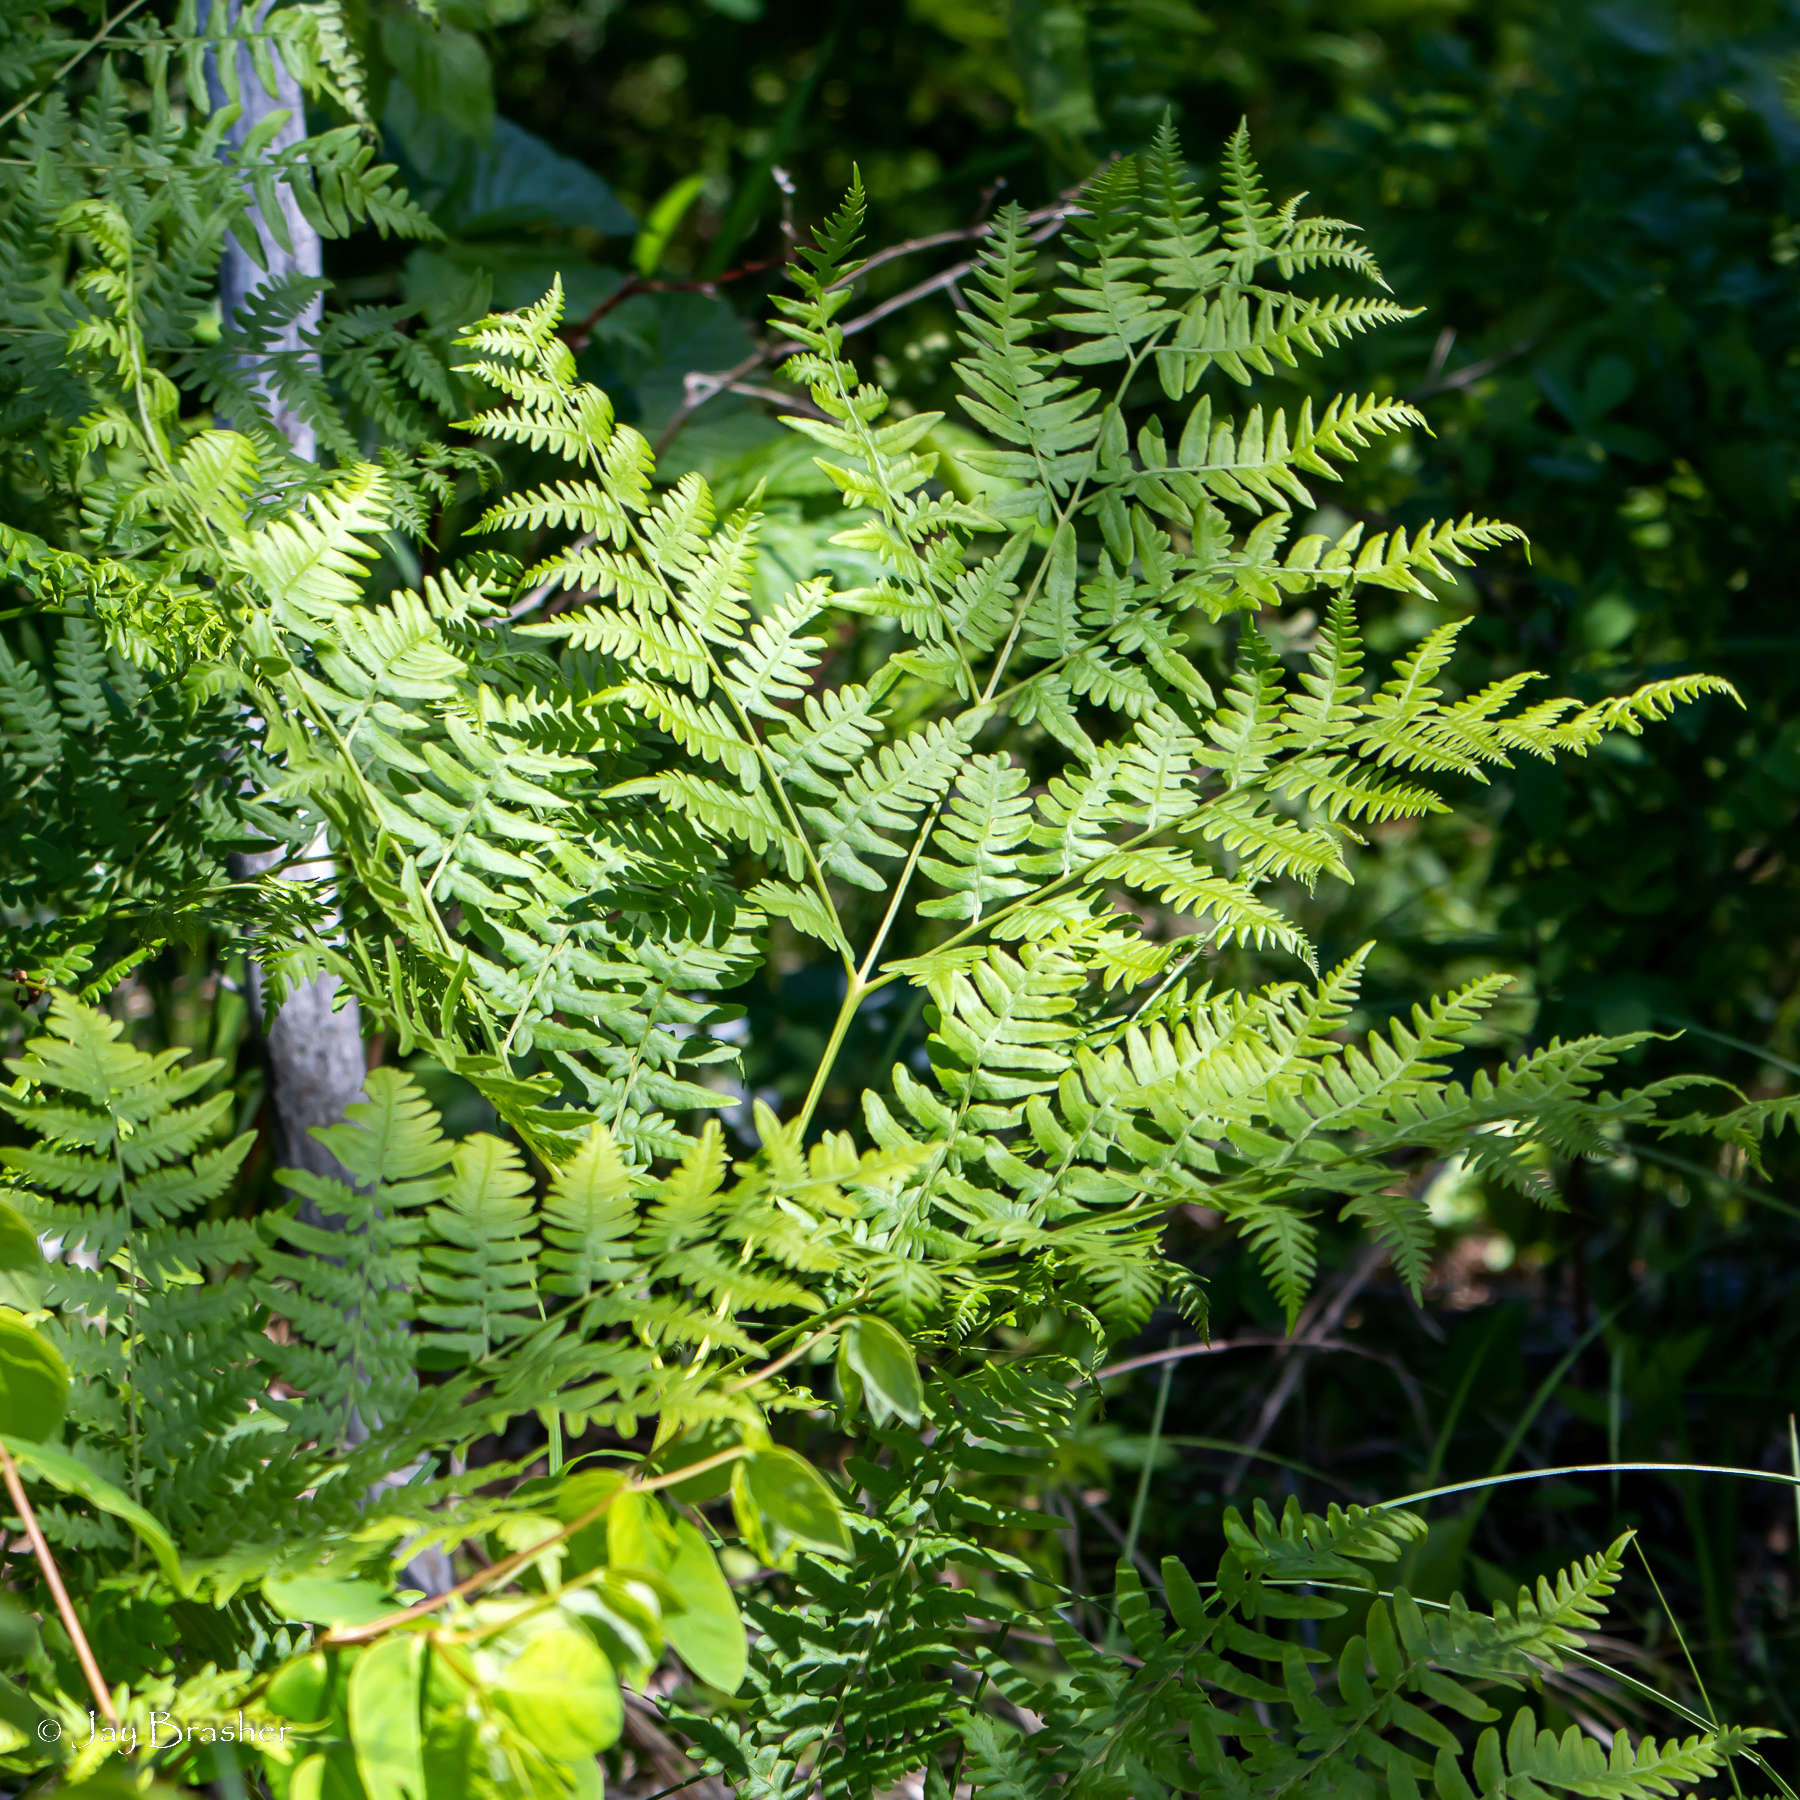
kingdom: Plantae
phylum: Tracheophyta
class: Polypodiopsida
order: Polypodiales
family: Dennstaedtiaceae
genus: Pteridium
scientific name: Pteridium aquilinum
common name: Bracken
